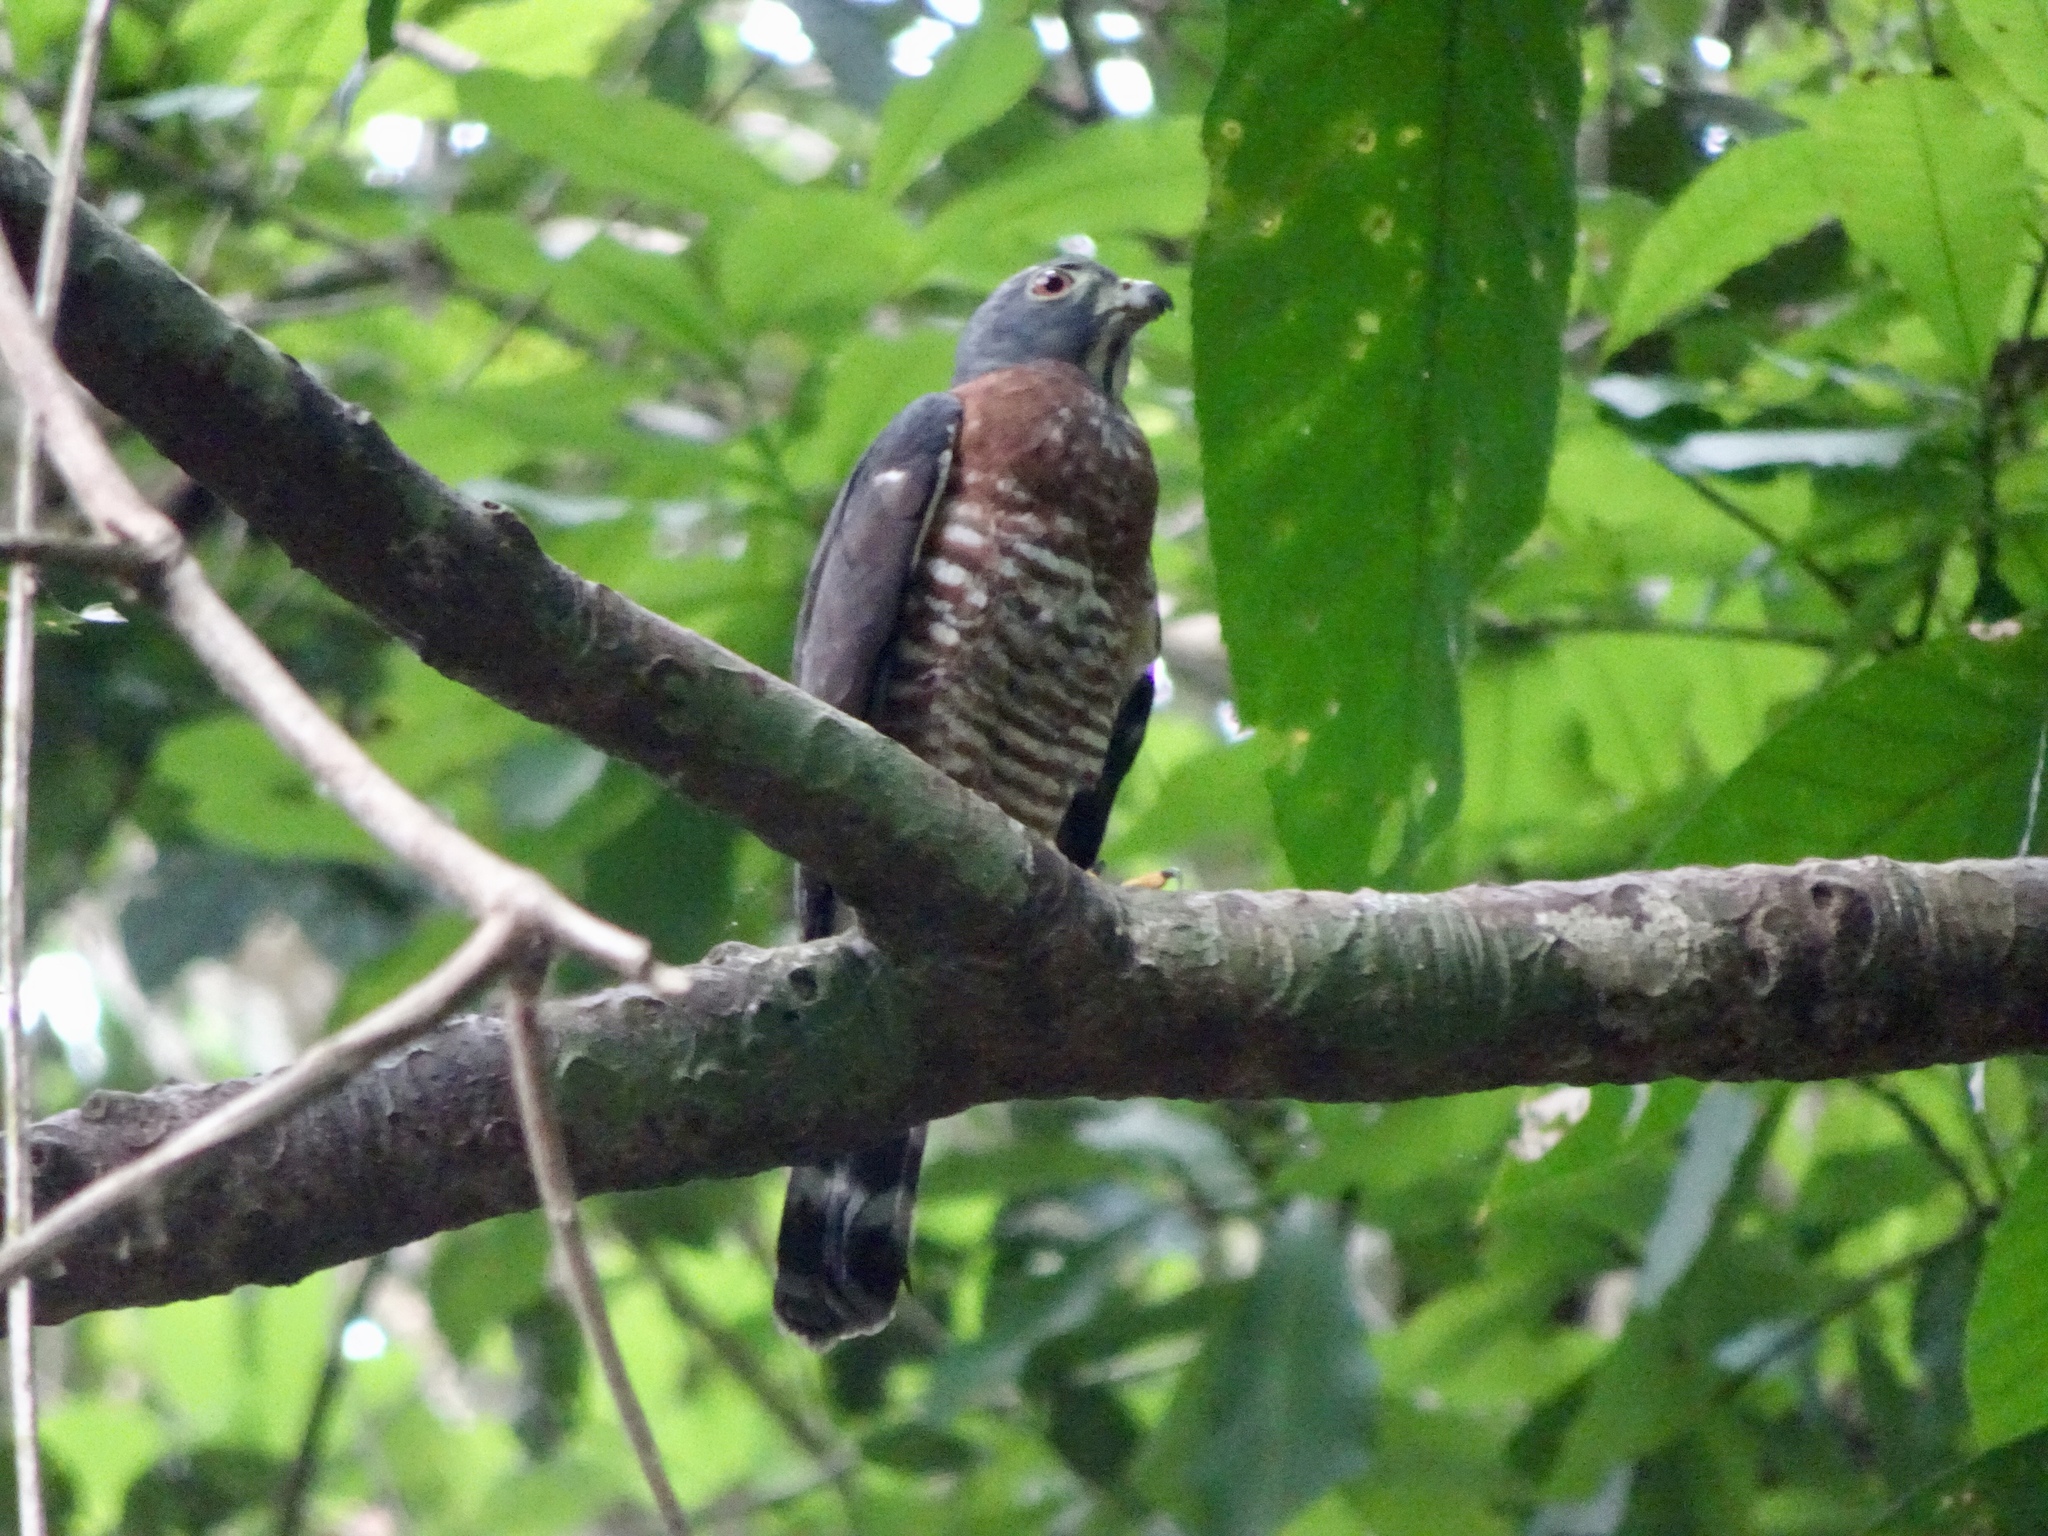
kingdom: Animalia
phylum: Chordata
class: Aves
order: Accipitriformes
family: Accipitridae
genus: Harpagus
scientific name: Harpagus bidentatus
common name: Double-toothed kite
